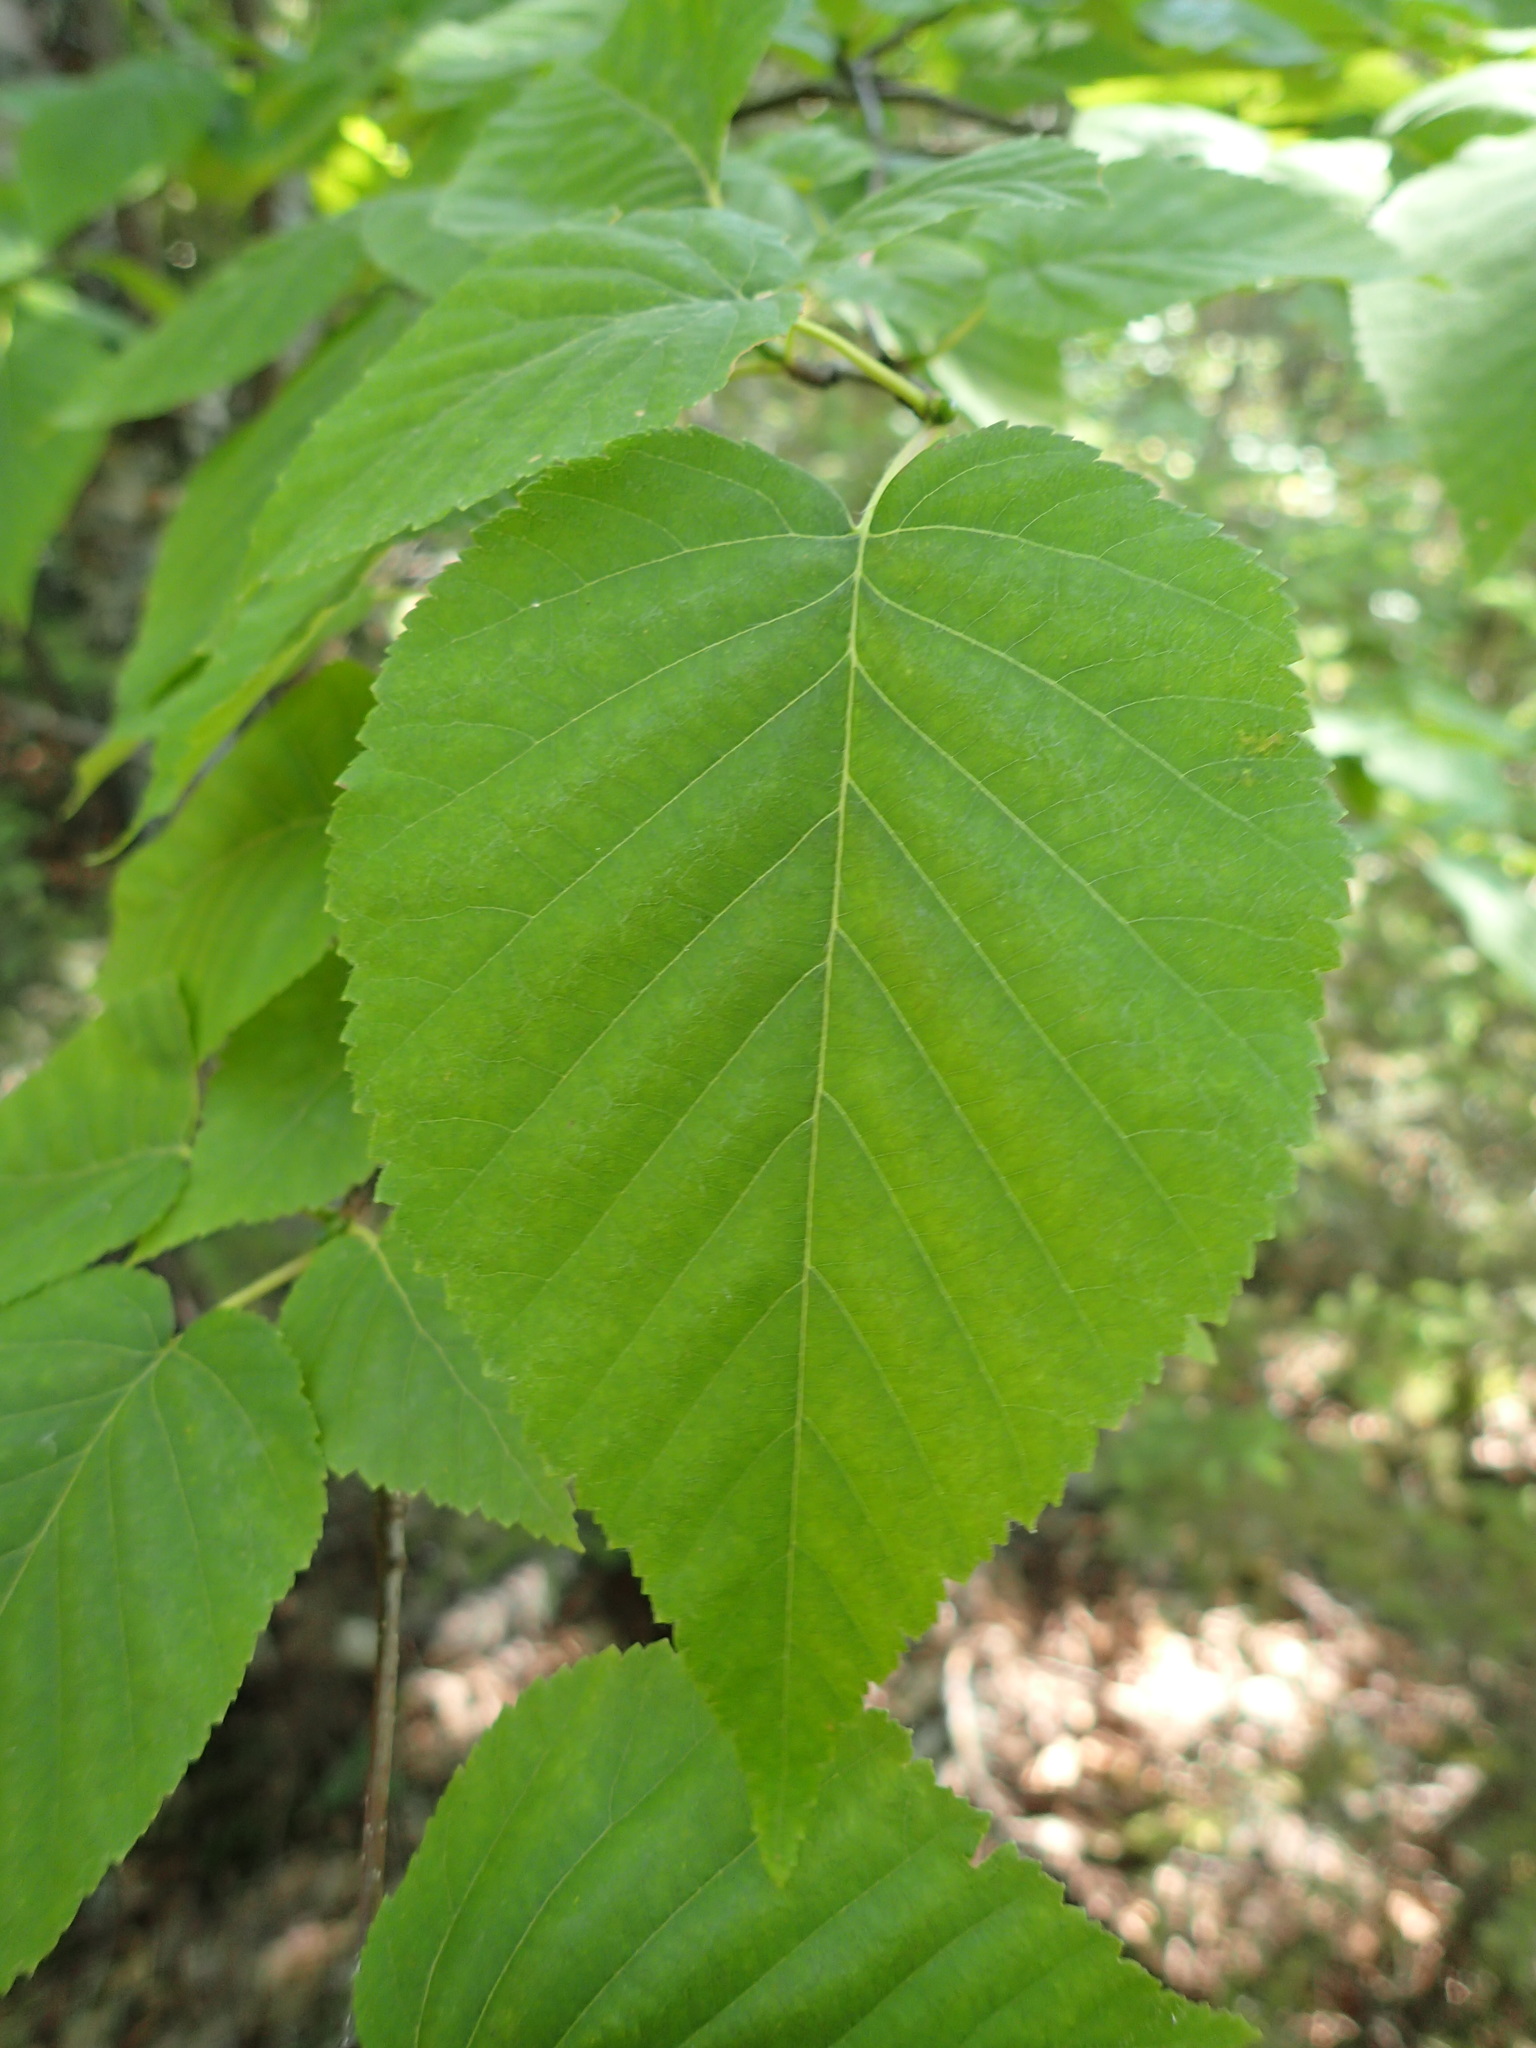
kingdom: Plantae
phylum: Tracheophyta
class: Magnoliopsida
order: Fagales
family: Betulaceae
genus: Betula
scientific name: Betula cordifolia
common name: Mountain white birch
